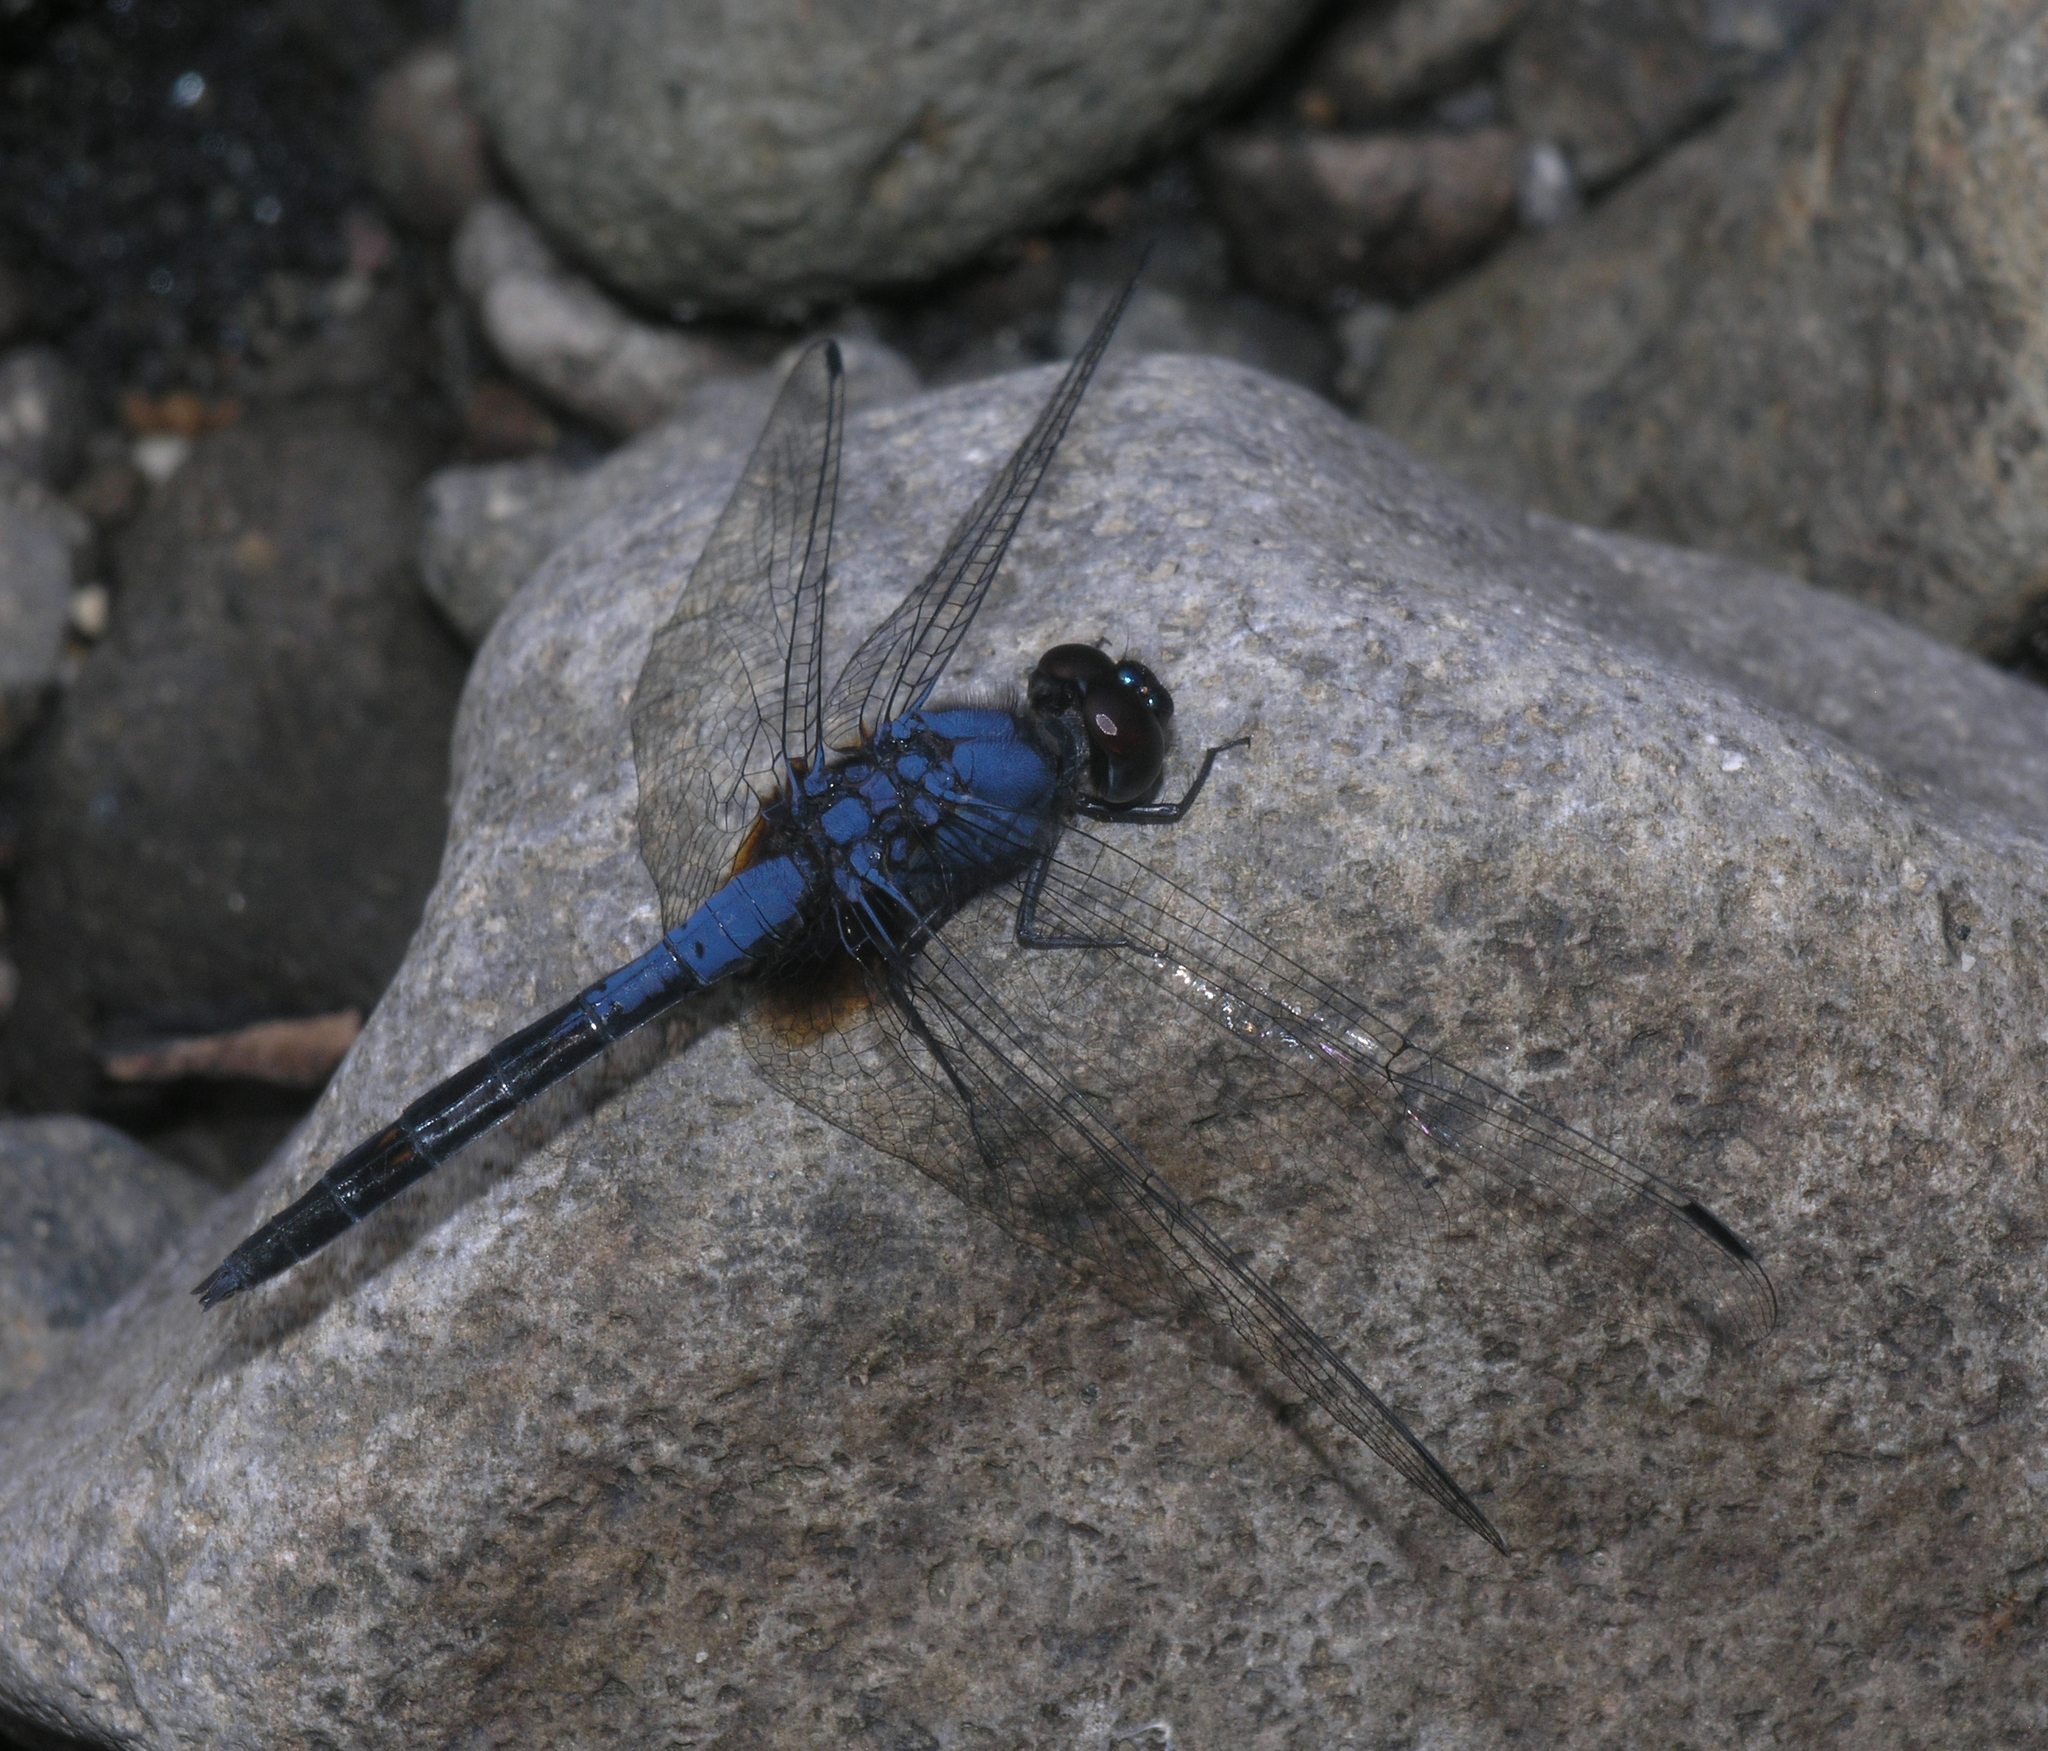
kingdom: Animalia
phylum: Arthropoda
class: Insecta
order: Odonata
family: Libellulidae
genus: Trithemis
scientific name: Trithemis festiva
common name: Indigo dropwing
